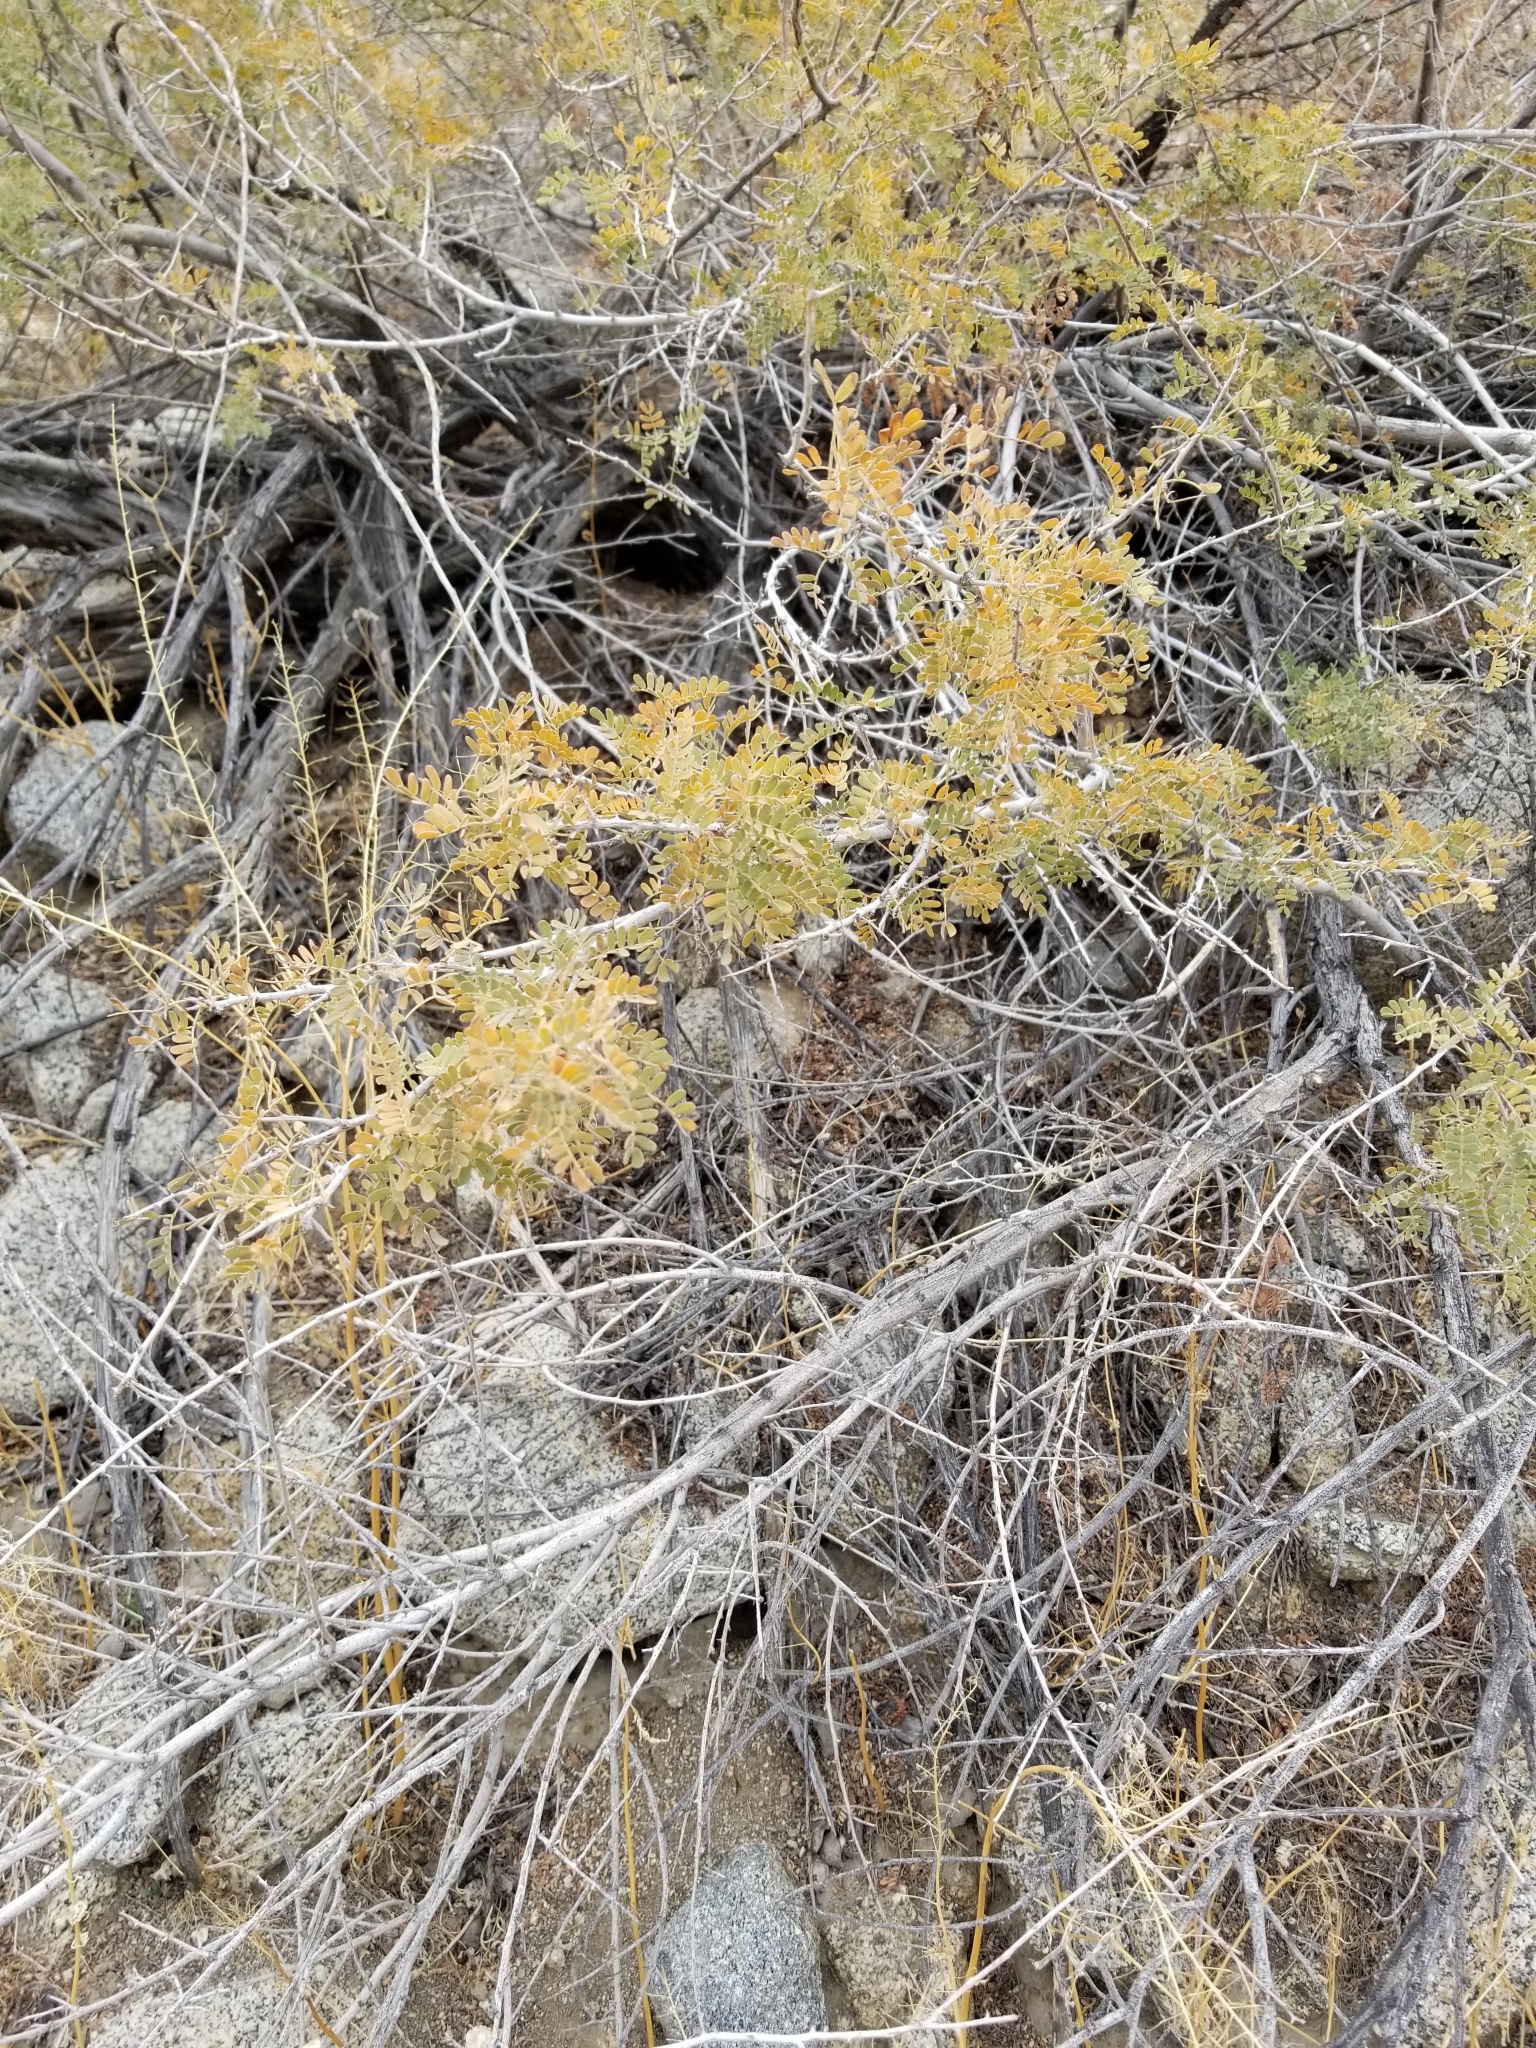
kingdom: Plantae
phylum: Tracheophyta
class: Magnoliopsida
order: Fabales
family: Fabaceae
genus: Senegalia
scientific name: Senegalia greggii
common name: Texas-mimosa
